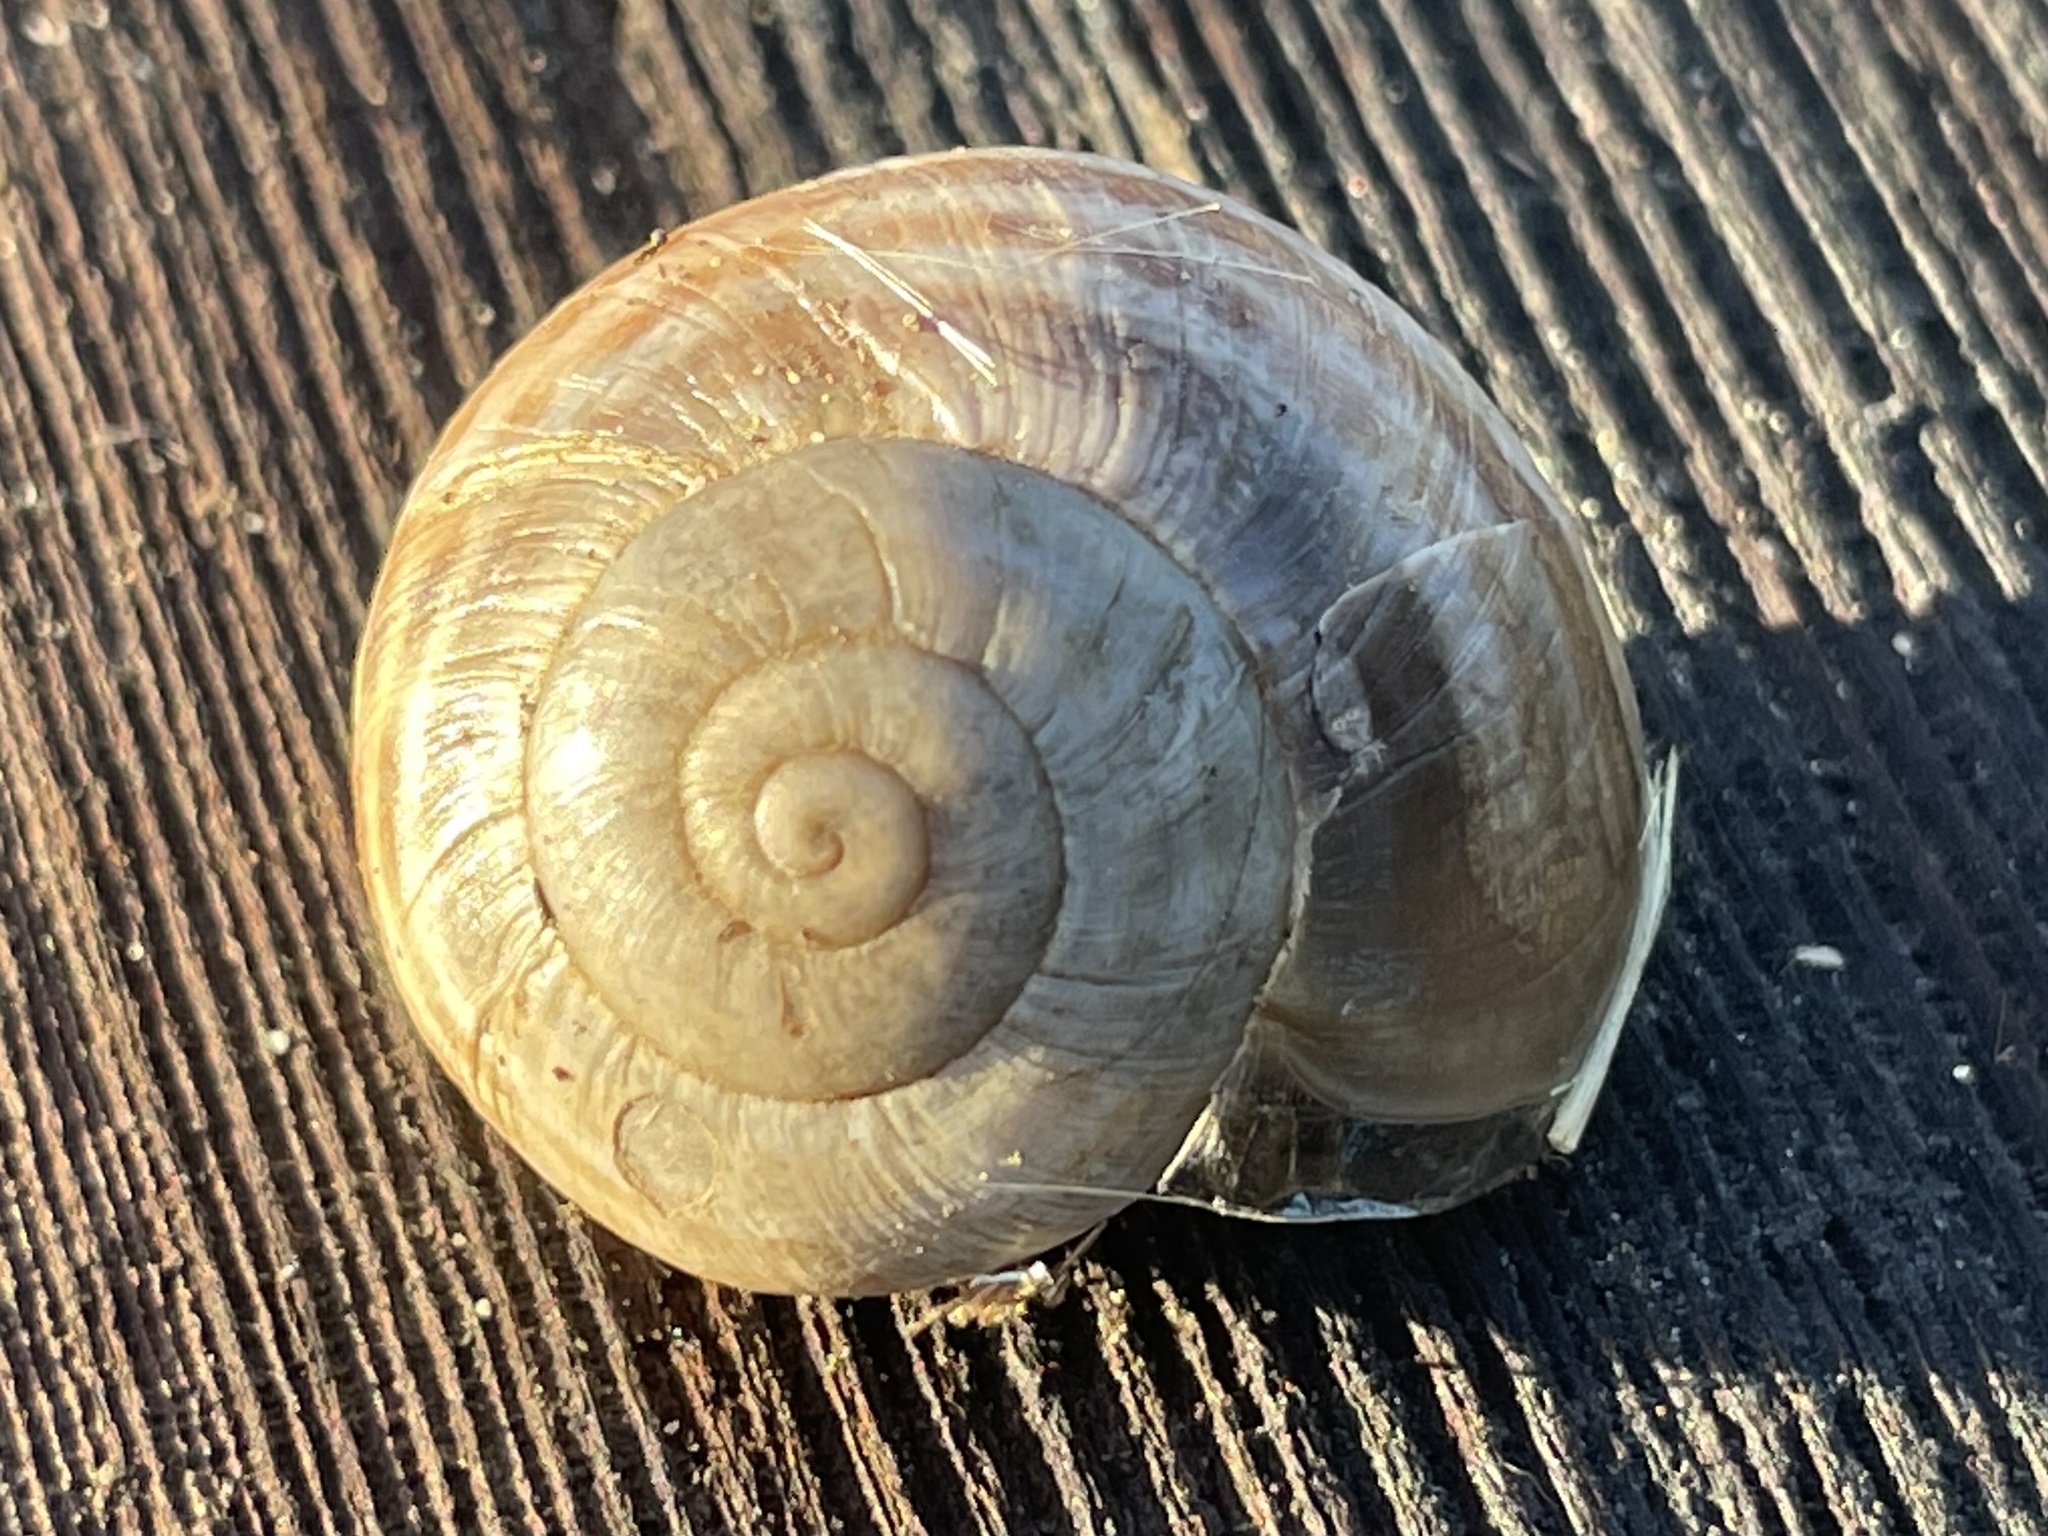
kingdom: Animalia
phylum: Mollusca
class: Gastropoda
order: Stylommatophora
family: Helicidae
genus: Otala
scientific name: Otala lactea
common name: Milk snail
